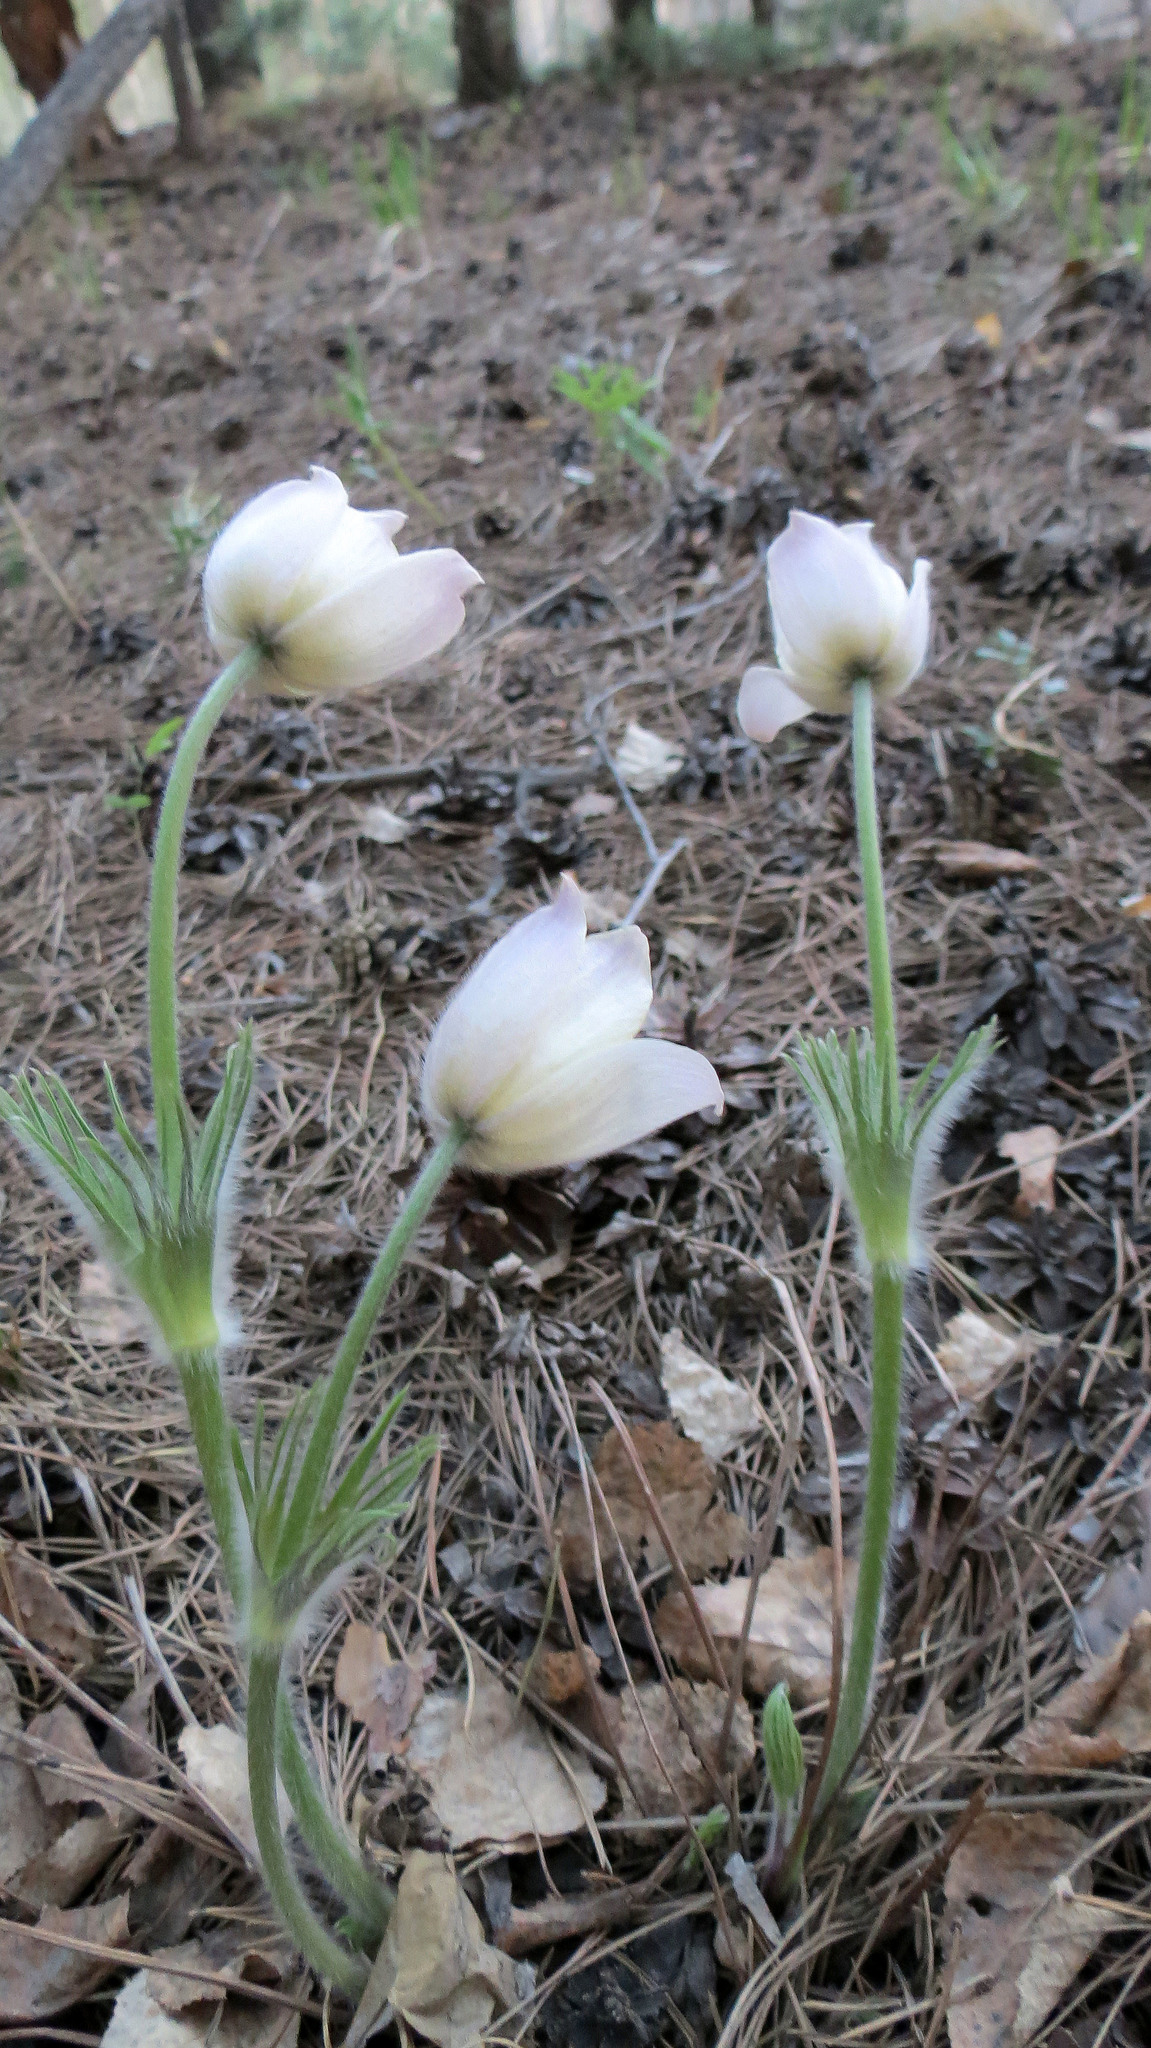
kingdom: Plantae
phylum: Tracheophyta
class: Magnoliopsida
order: Ranunculales
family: Ranunculaceae
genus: Pulsatilla
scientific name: Pulsatilla patens
